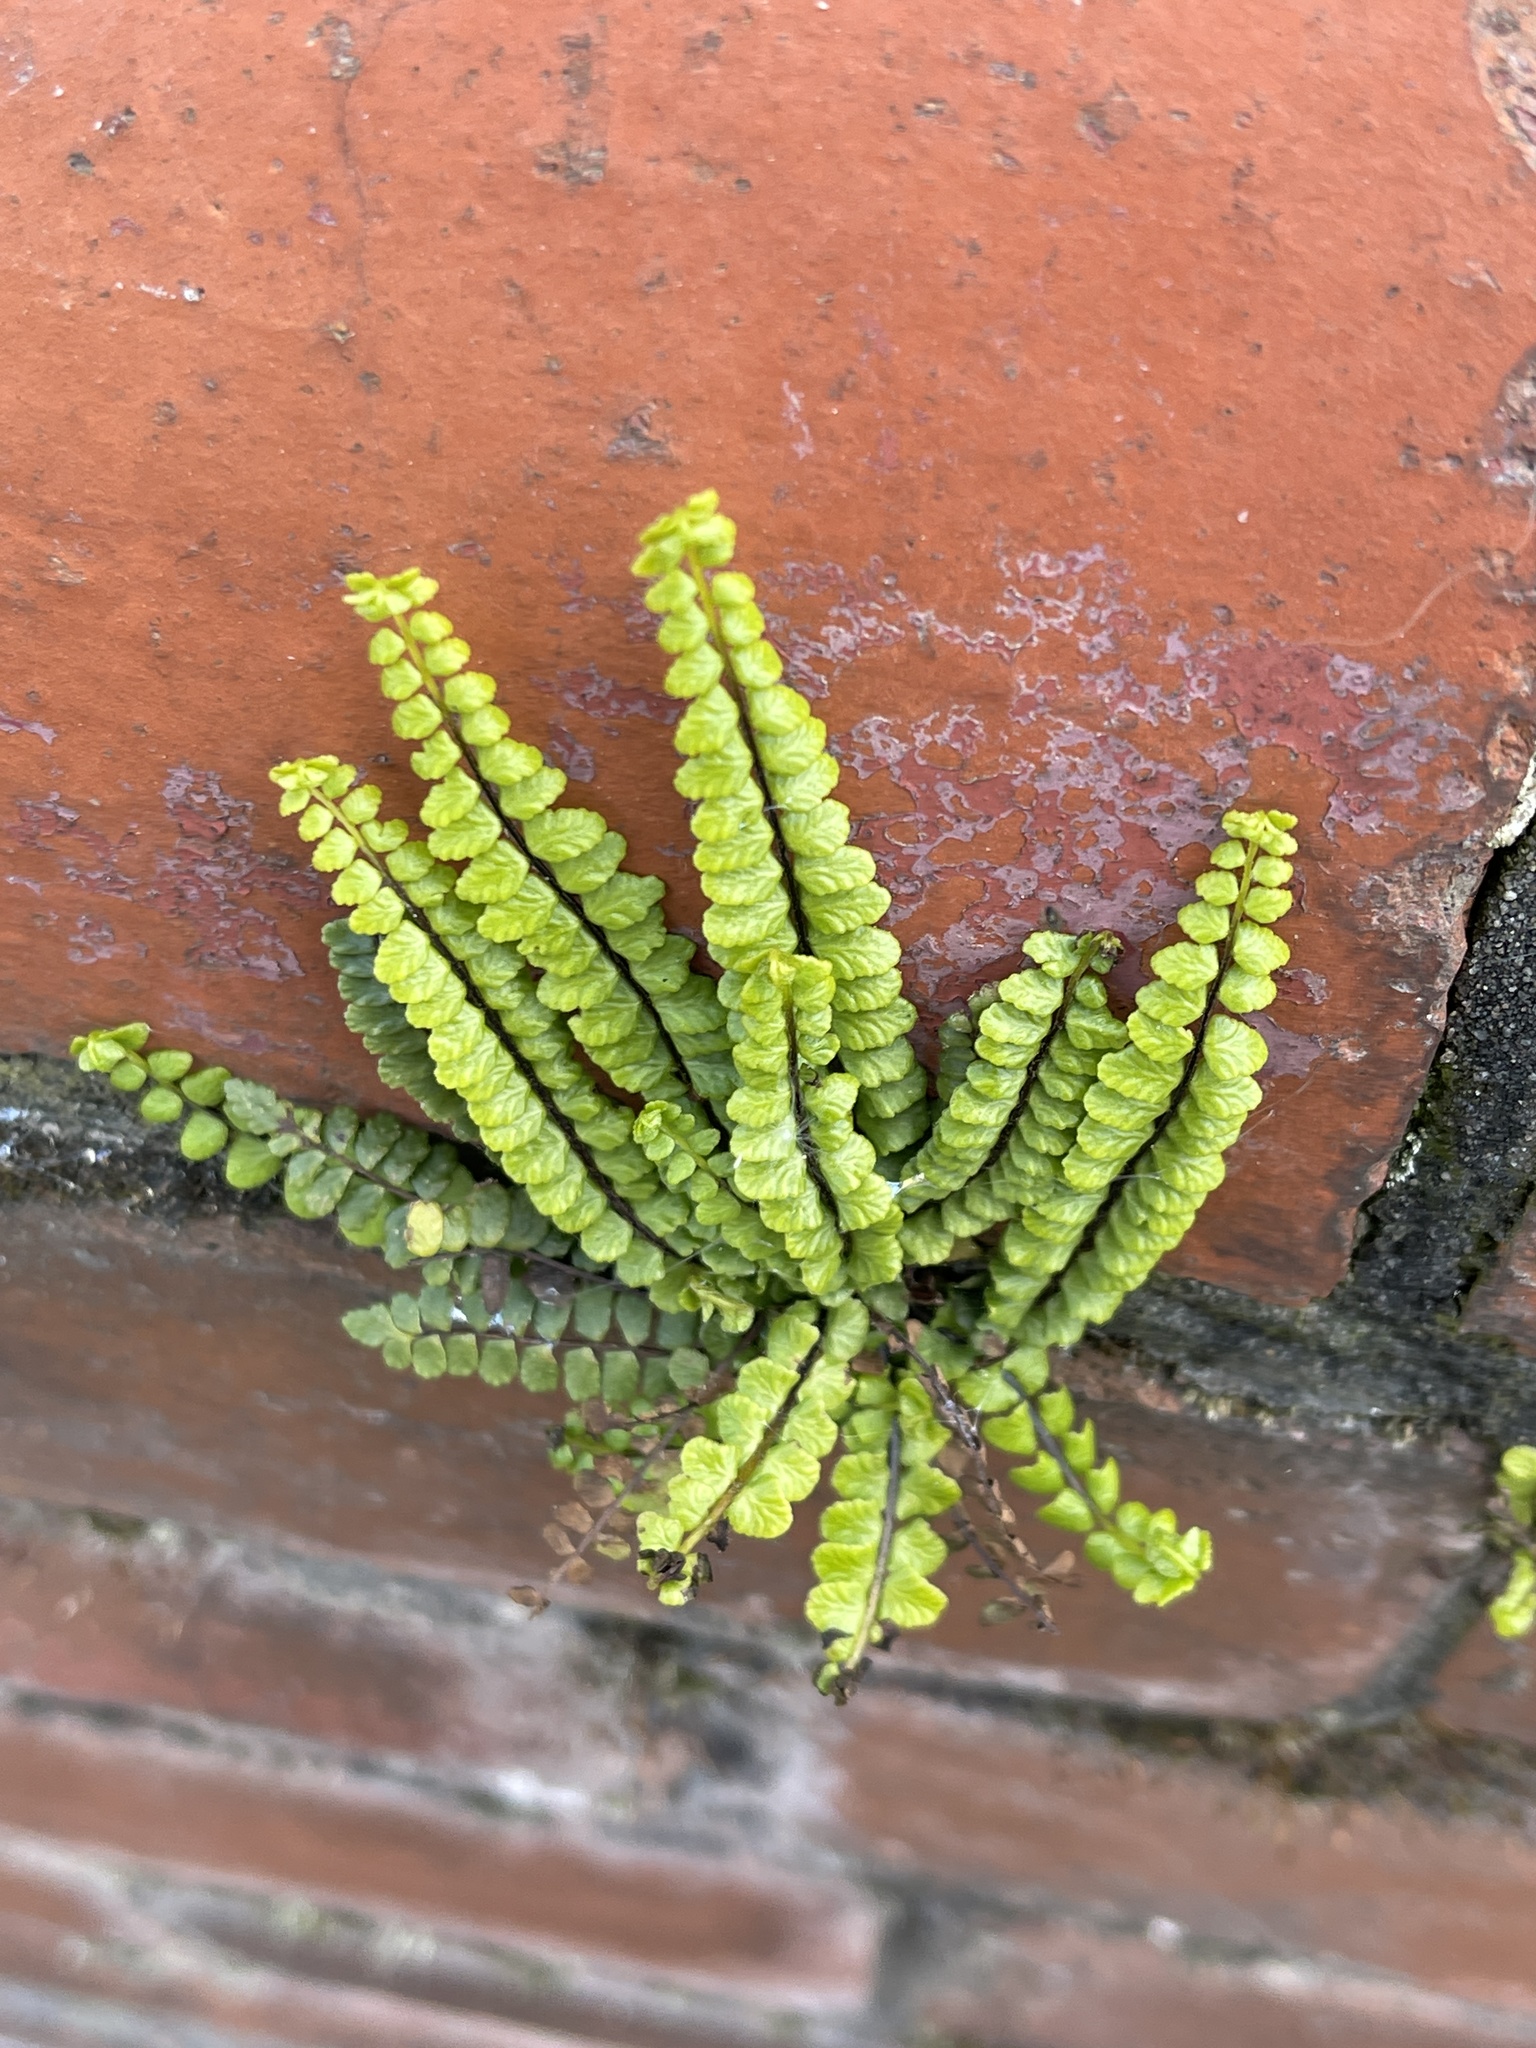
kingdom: Plantae
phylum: Tracheophyta
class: Polypodiopsida
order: Polypodiales
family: Aspleniaceae
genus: Asplenium
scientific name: Asplenium trichomanes
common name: Maidenhair spleenwort
